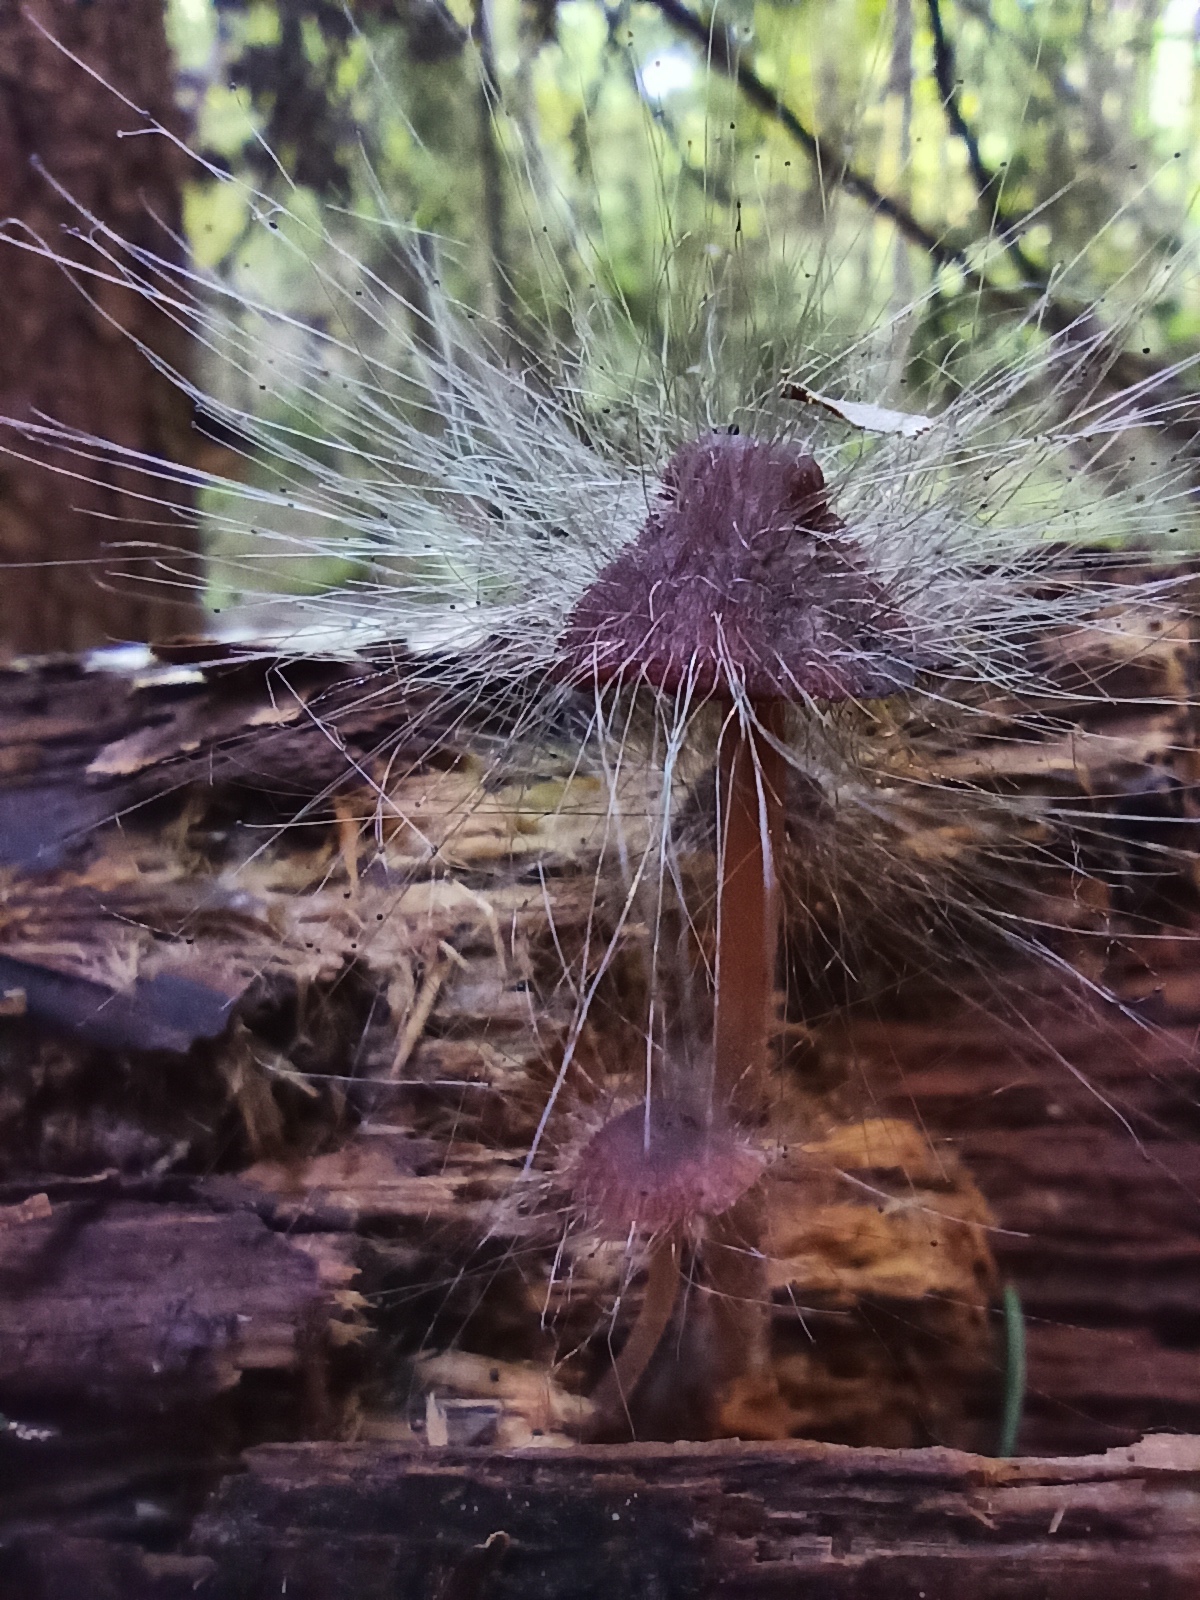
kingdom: Fungi
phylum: Mucoromycota
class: Mucoromycetes
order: Mucorales
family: Phycomycetaceae
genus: Spinellus
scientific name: Spinellus fusiger
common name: Bonnet mould
